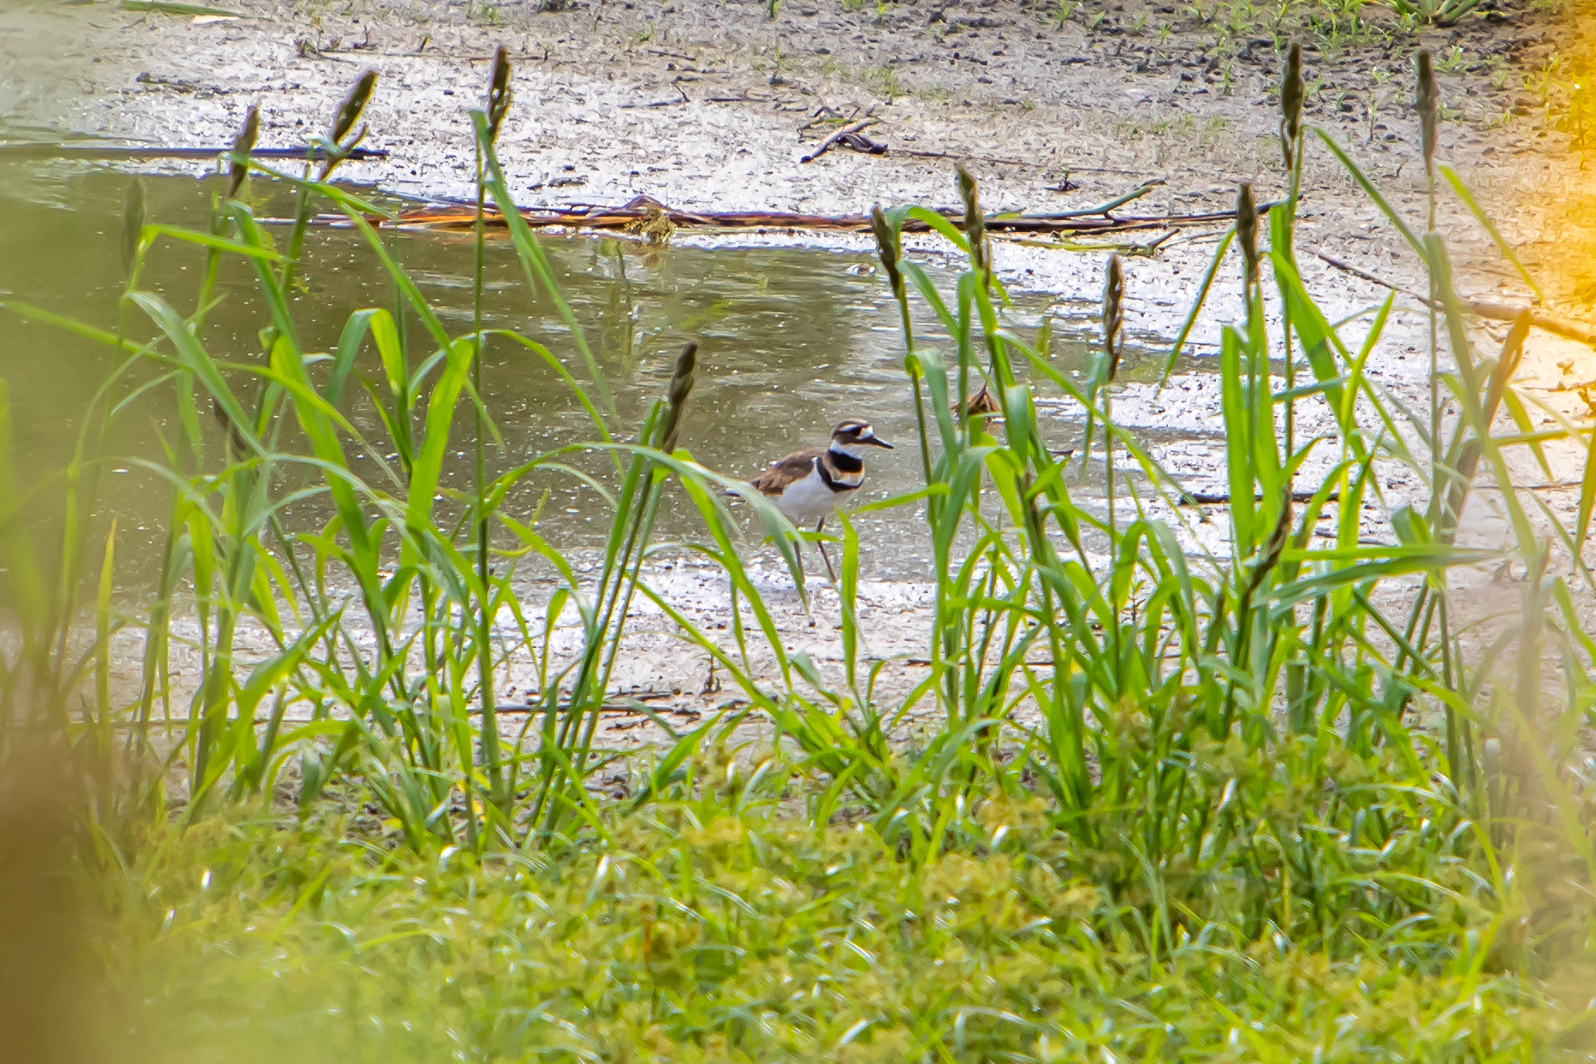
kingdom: Animalia
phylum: Chordata
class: Aves
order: Charadriiformes
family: Charadriidae
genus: Charadrius
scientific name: Charadrius vociferus
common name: Killdeer
